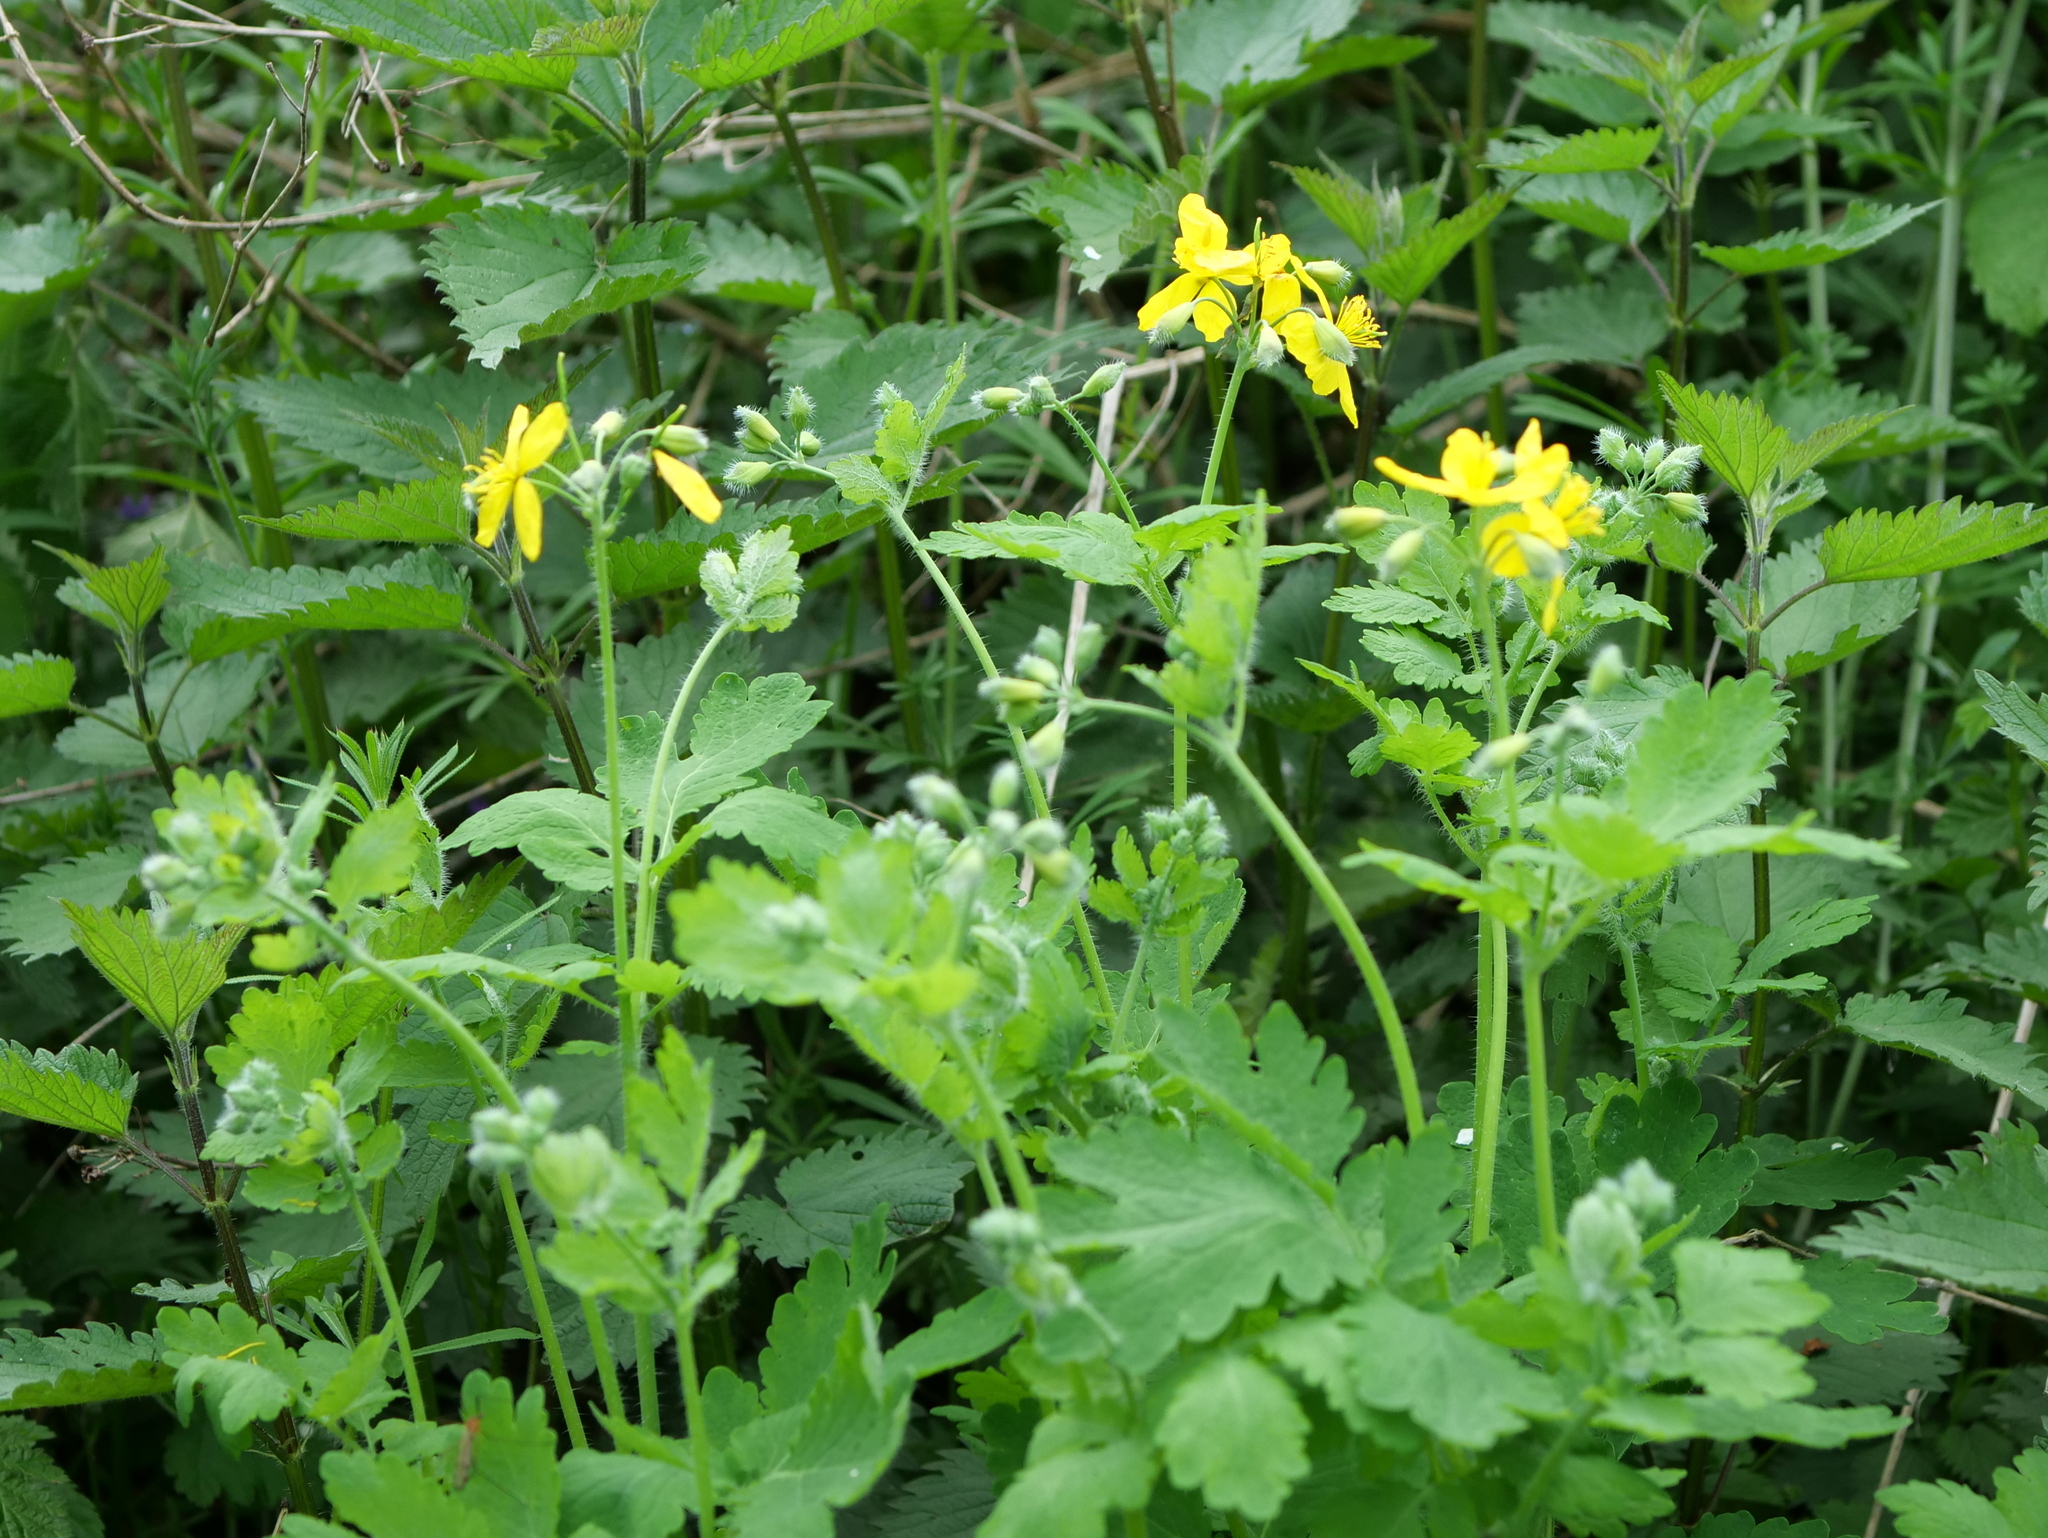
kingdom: Plantae
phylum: Tracheophyta
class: Magnoliopsida
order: Ranunculales
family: Papaveraceae
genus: Chelidonium
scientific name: Chelidonium majus
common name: Greater celandine
